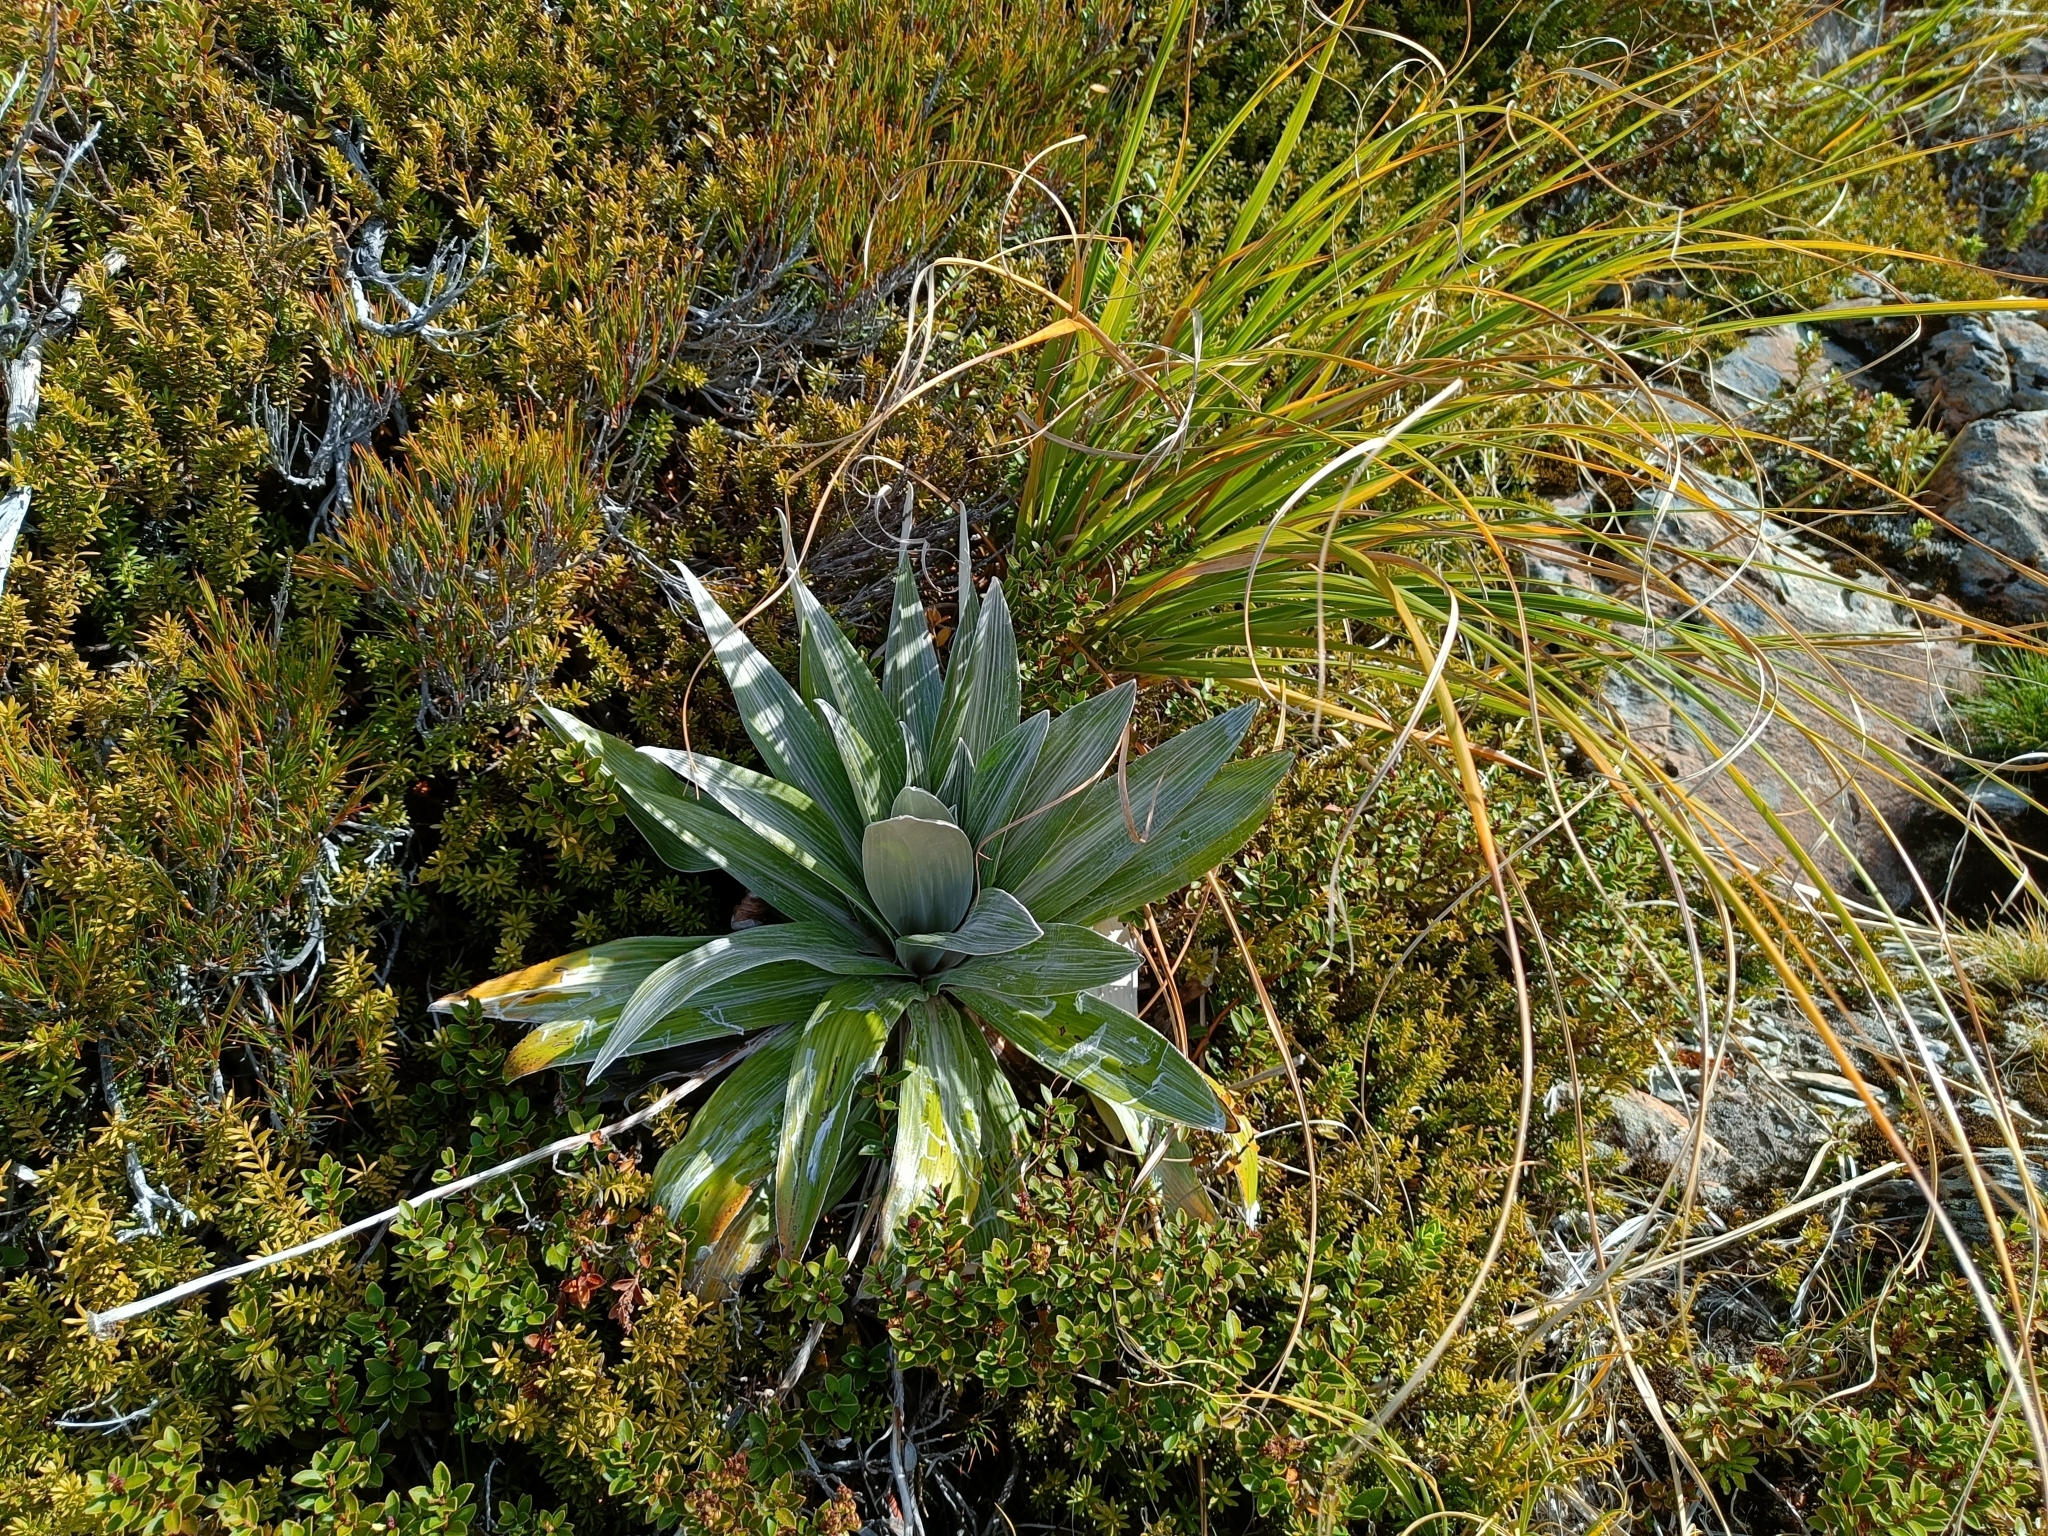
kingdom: Plantae
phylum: Tracheophyta
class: Magnoliopsida
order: Asterales
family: Asteraceae
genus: Celmisia
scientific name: Celmisia semicordata
